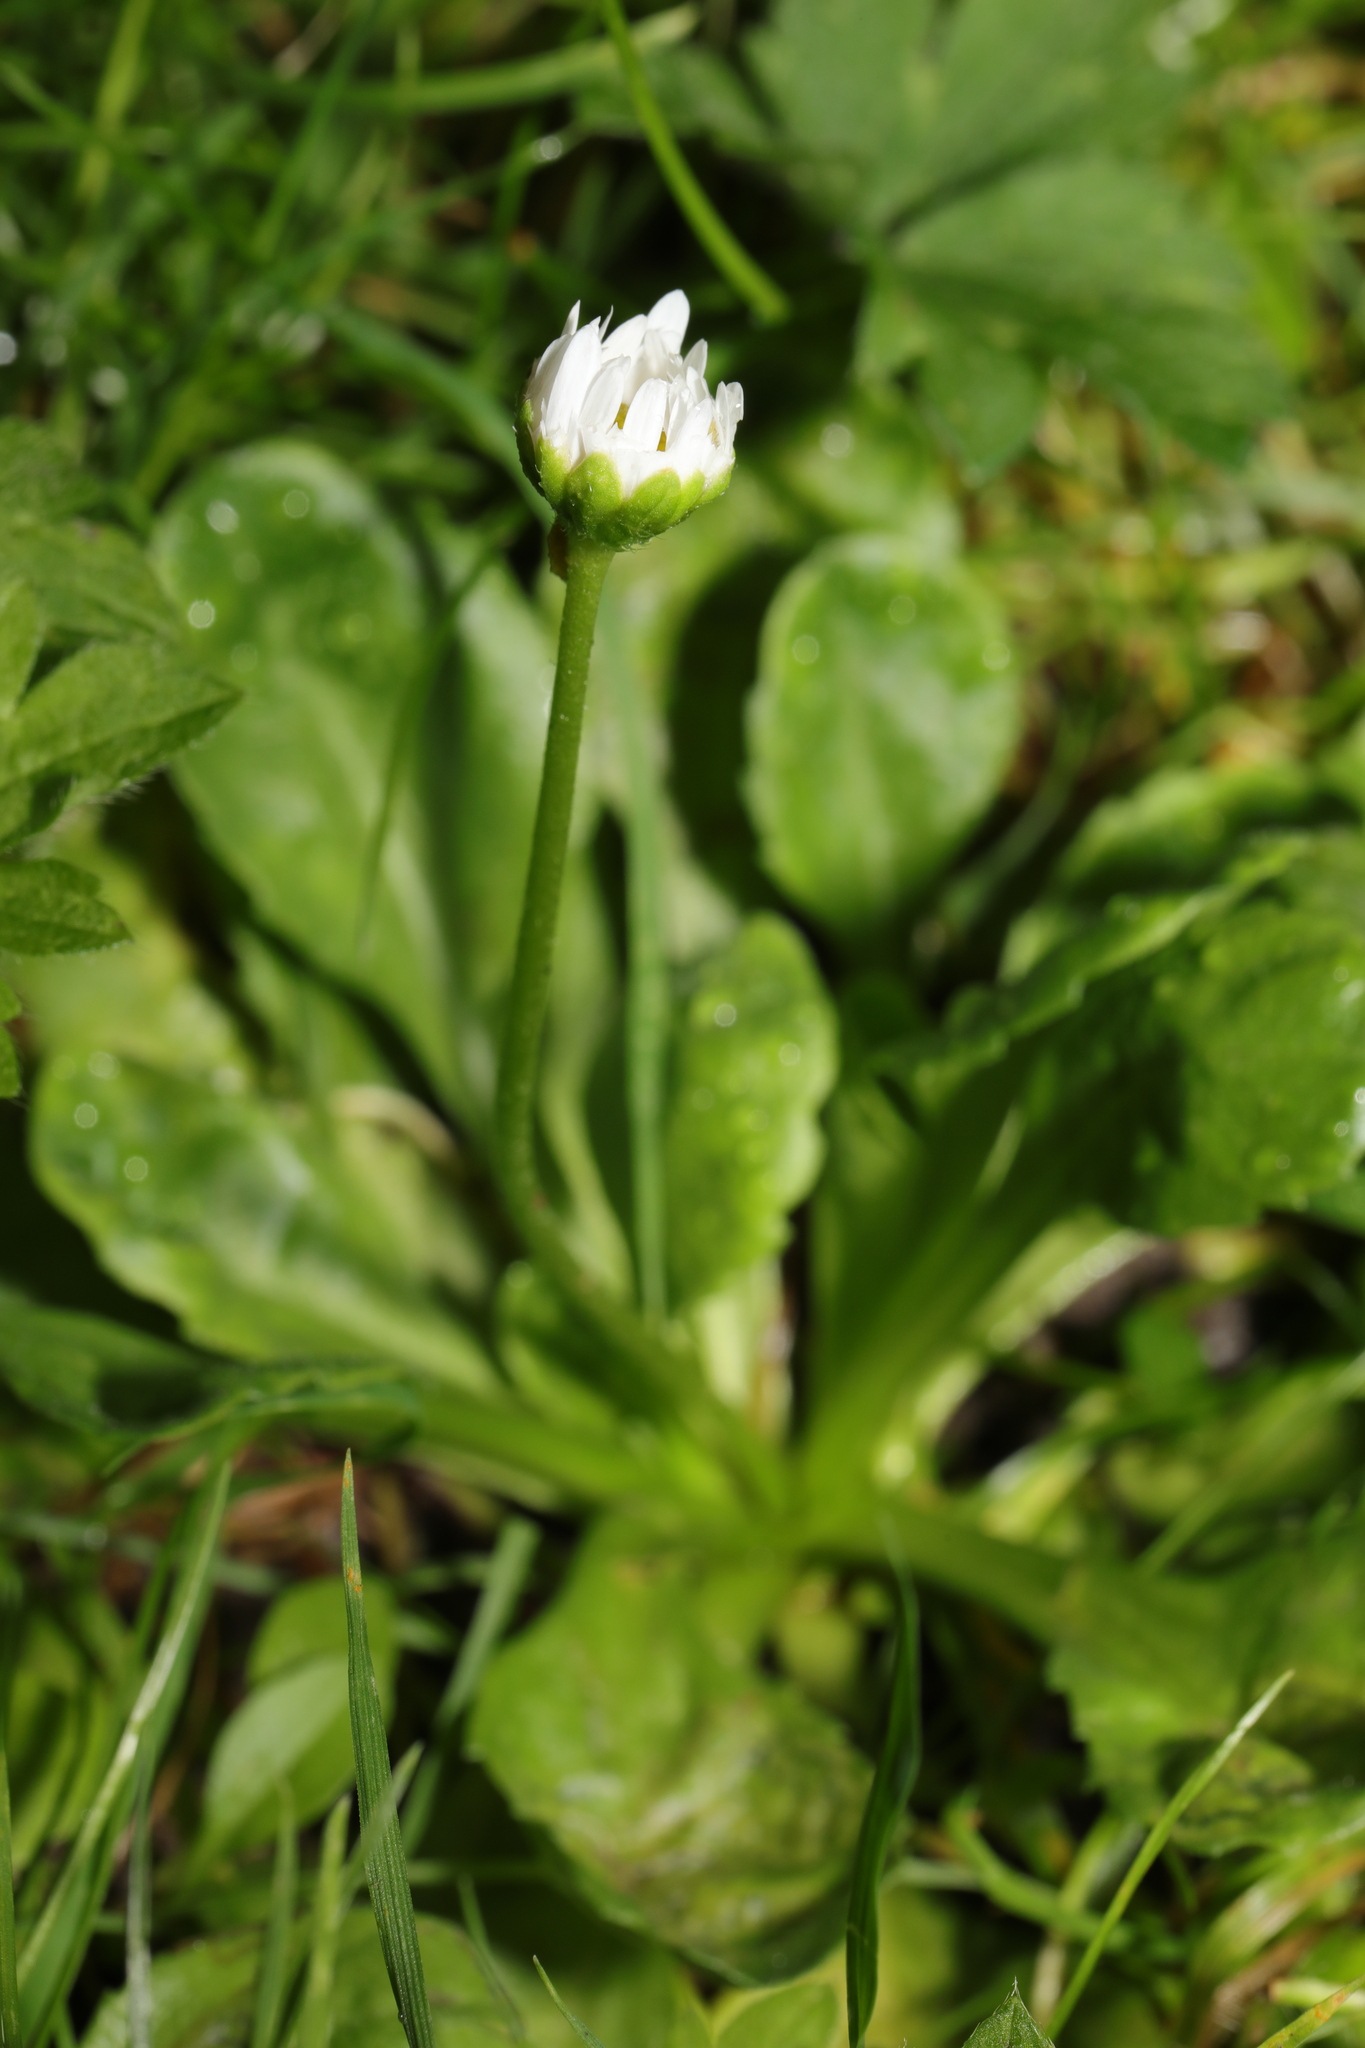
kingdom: Plantae
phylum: Tracheophyta
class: Magnoliopsida
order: Asterales
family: Asteraceae
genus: Bellis
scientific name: Bellis perennis
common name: Lawndaisy
